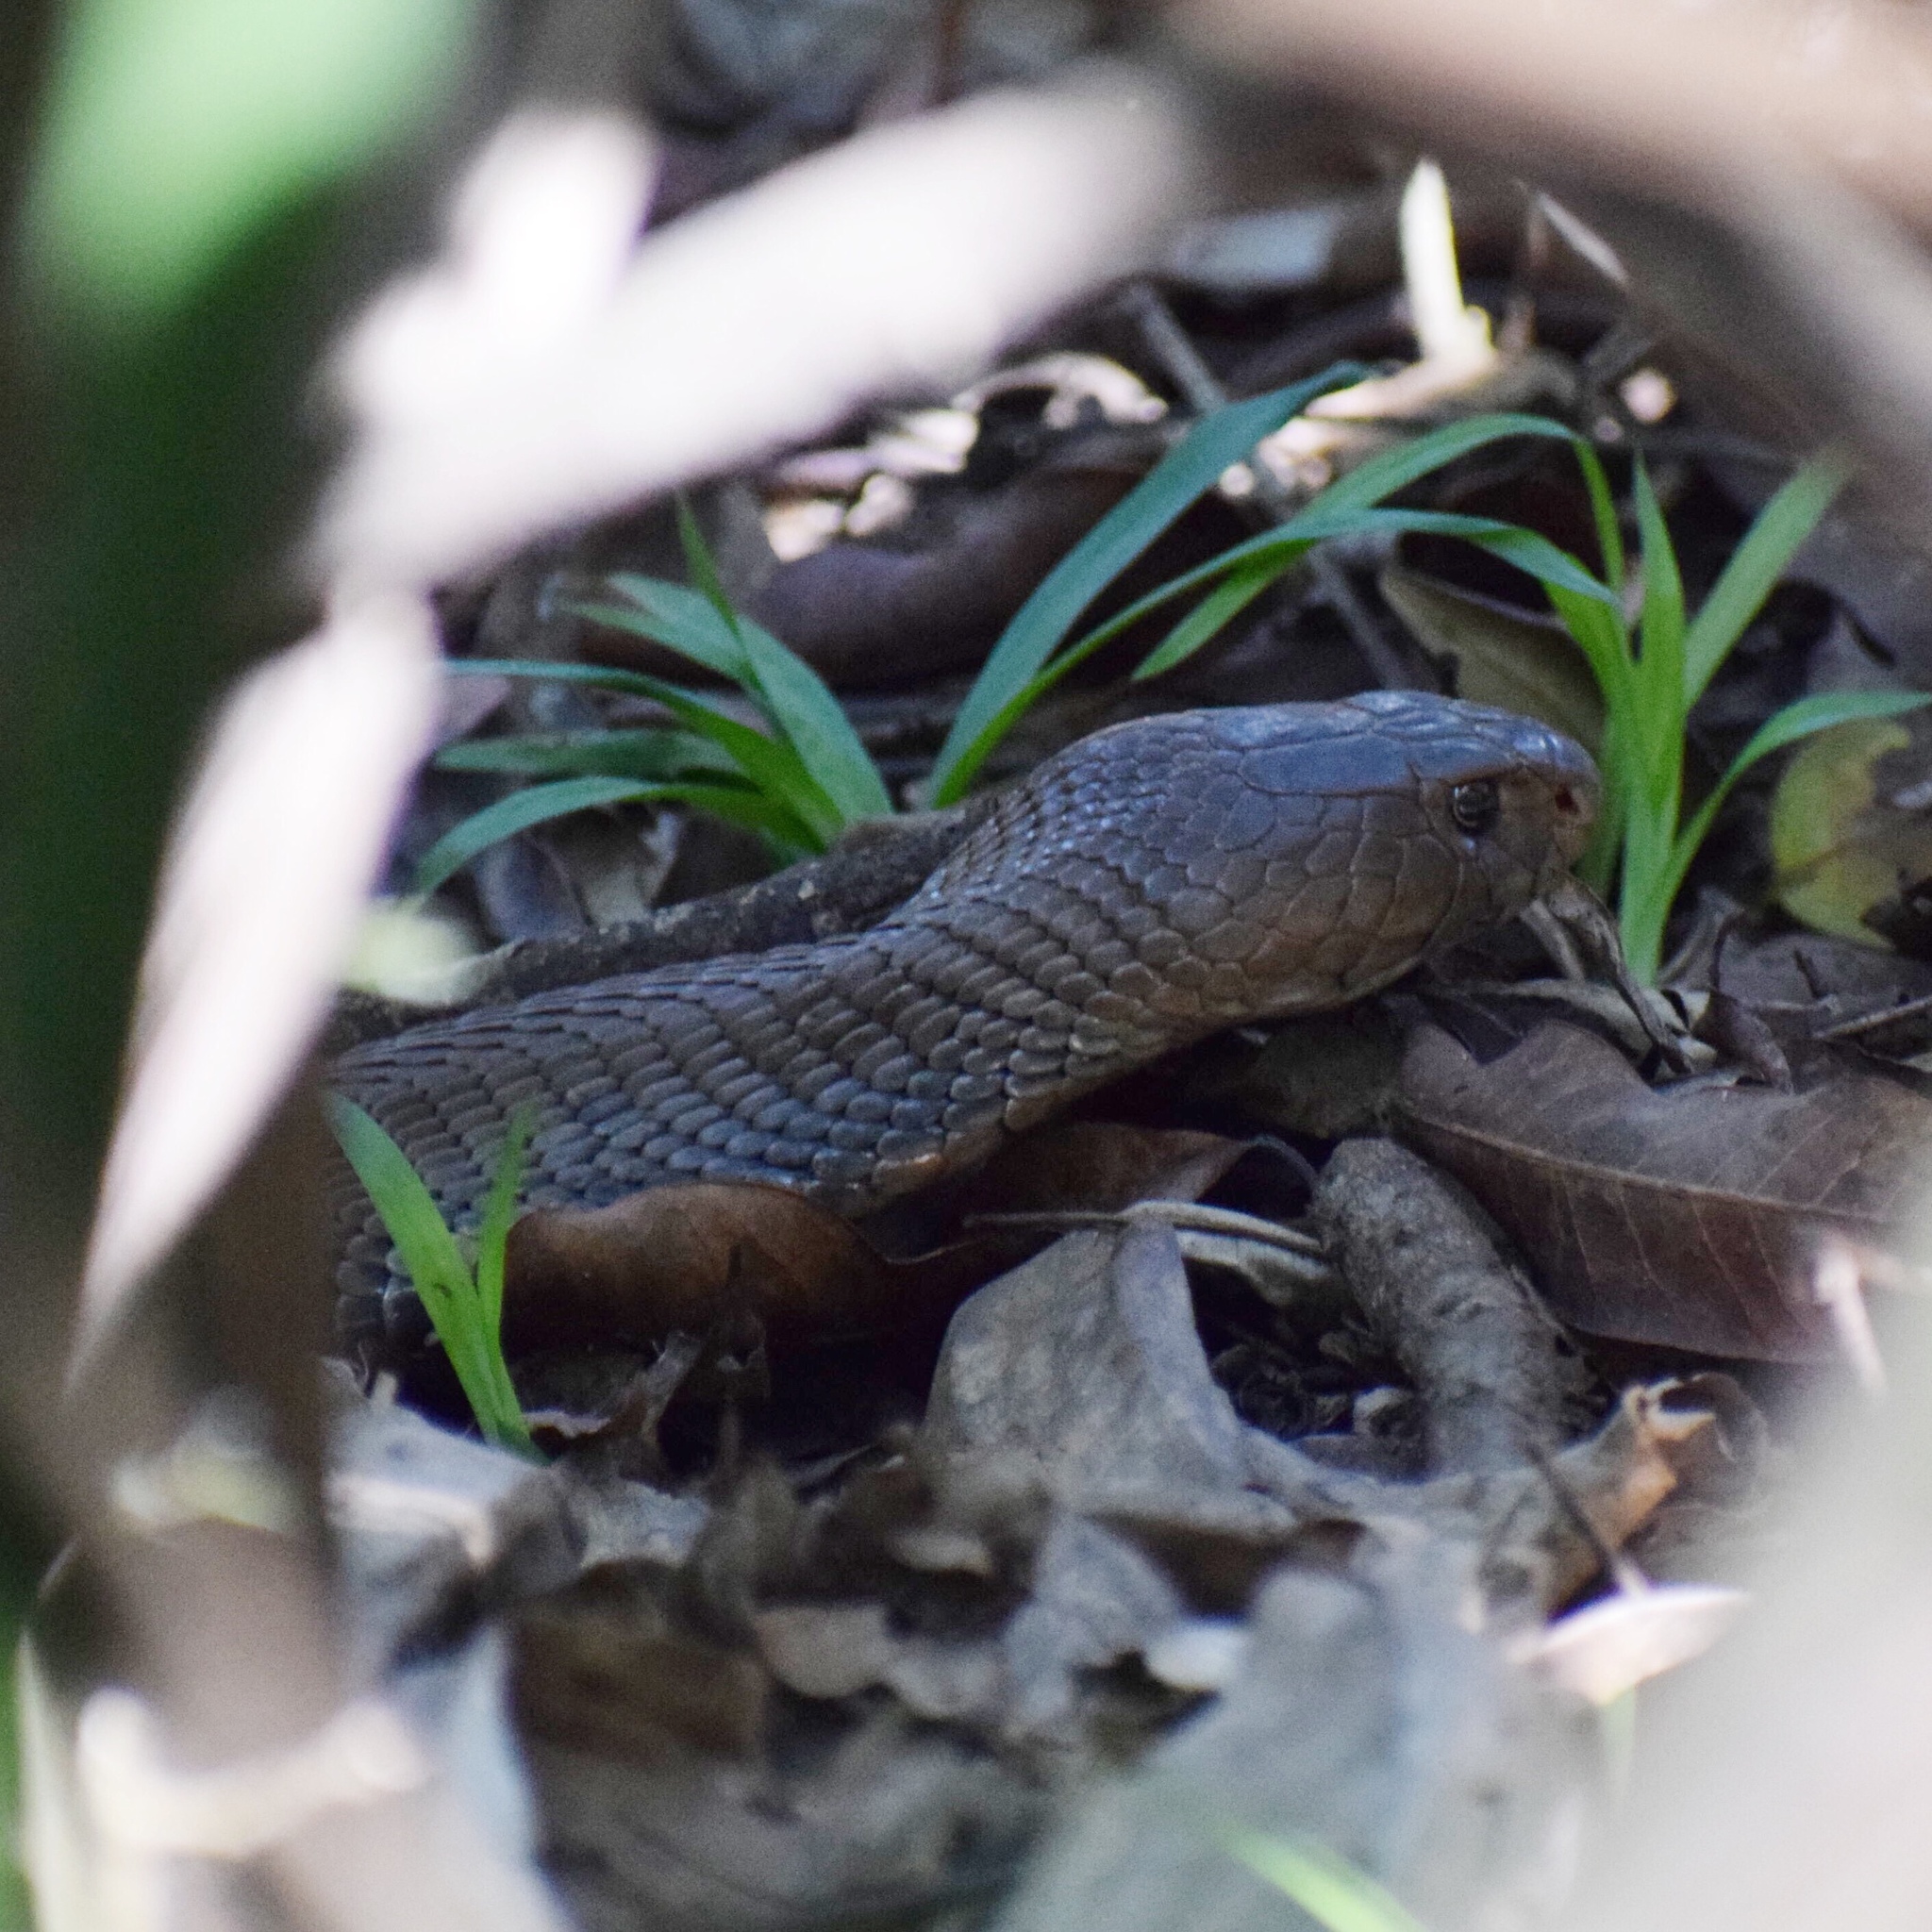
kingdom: Animalia
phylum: Chordata
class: Squamata
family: Elapidae
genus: Naja
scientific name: Naja mossambica
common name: Mozambique spitting cobra
